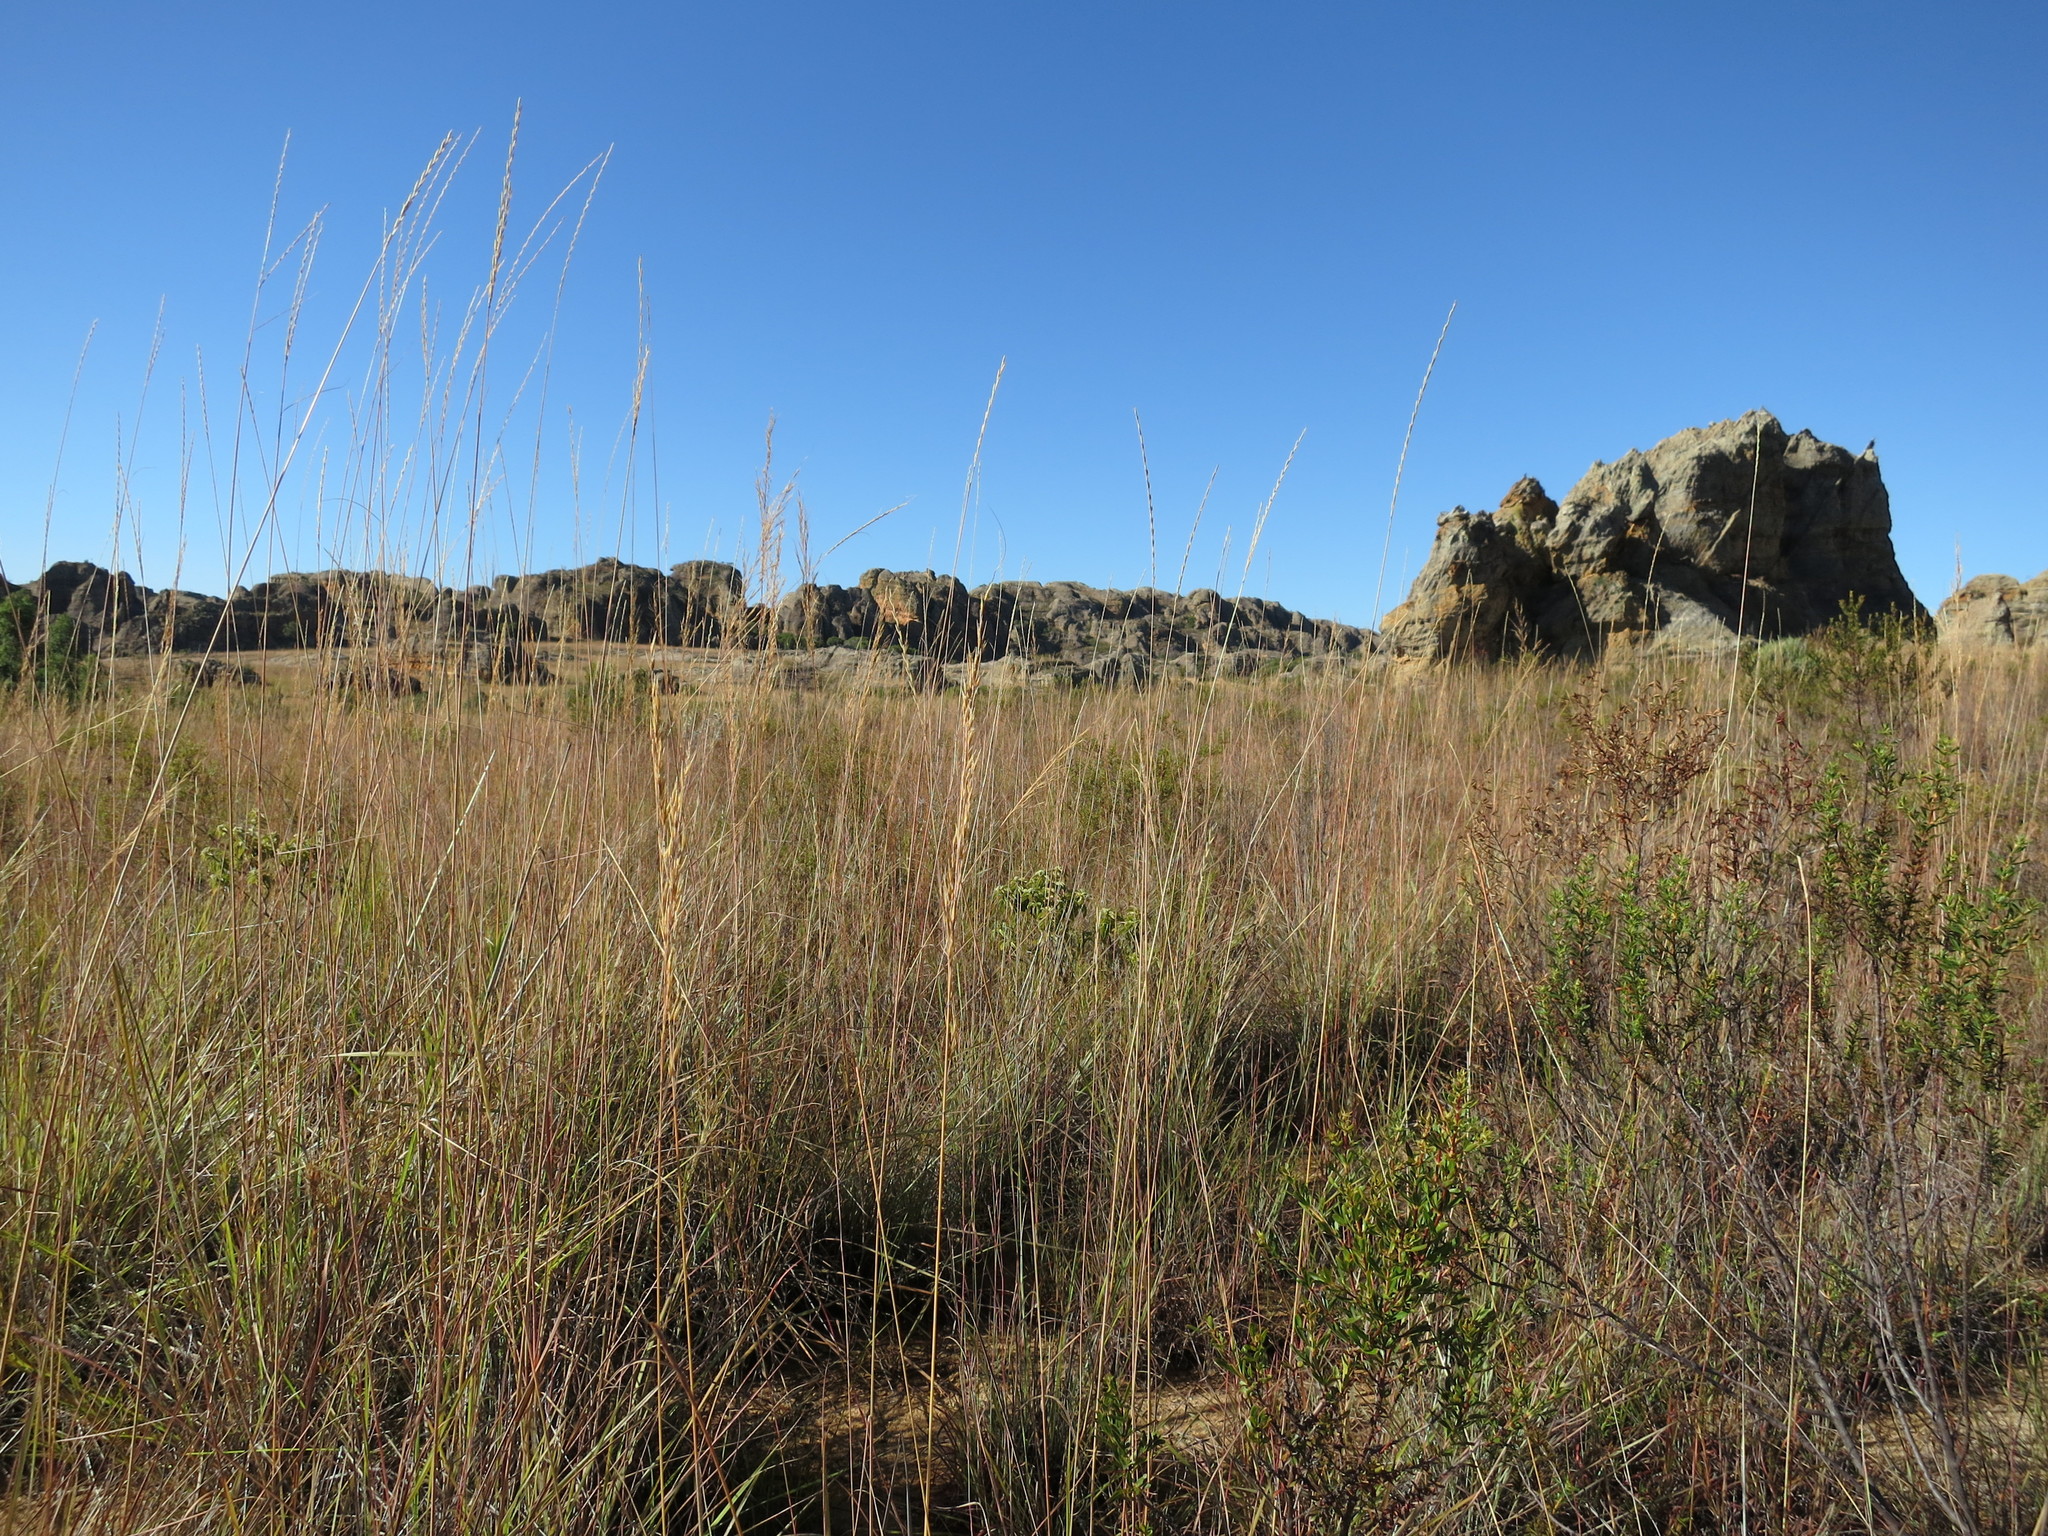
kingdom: Plantae
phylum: Tracheophyta
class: Liliopsida
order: Poales
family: Poaceae
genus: Trachypogon
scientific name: Trachypogon spicatus
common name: Crinkle-awn
